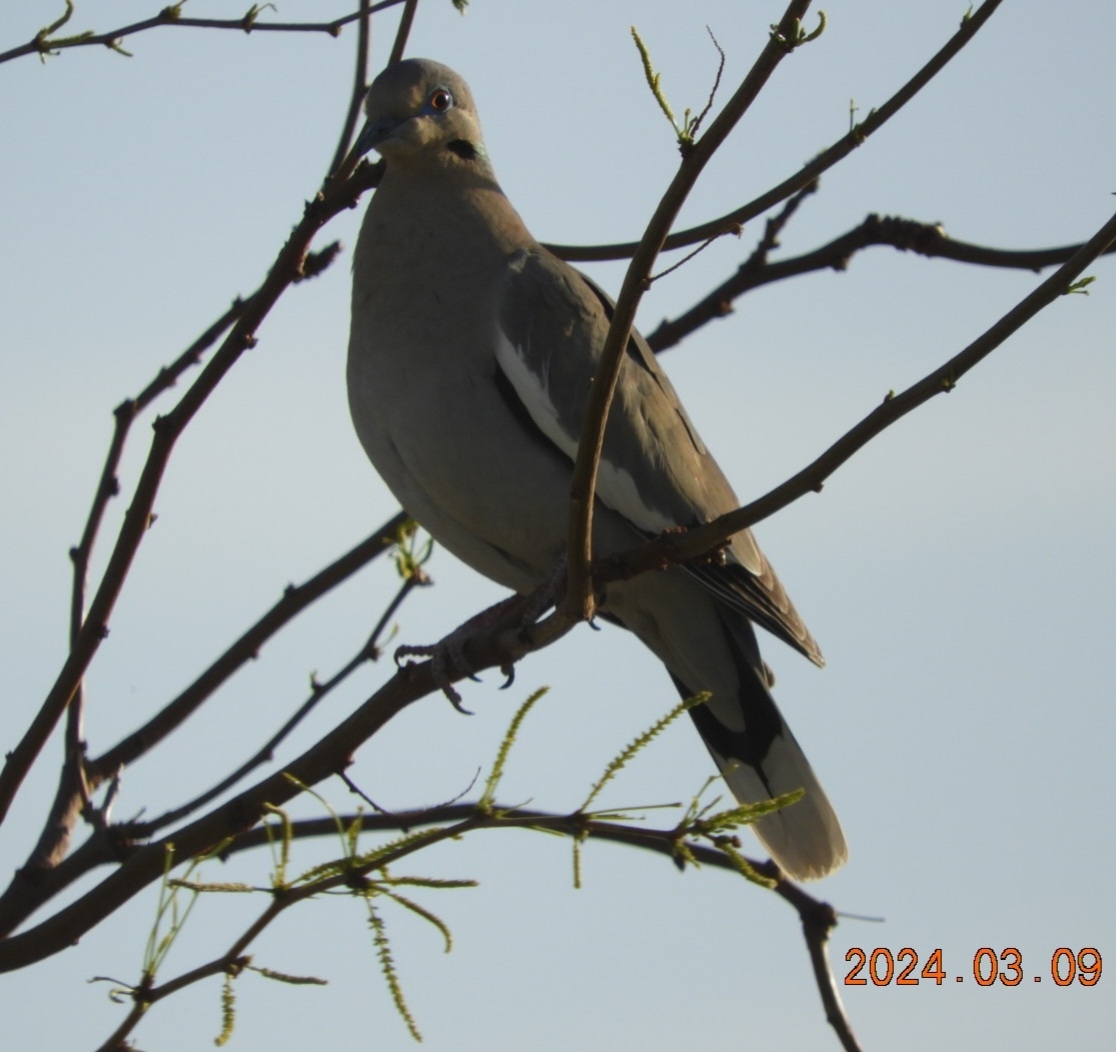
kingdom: Animalia
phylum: Chordata
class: Aves
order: Columbiformes
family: Columbidae
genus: Zenaida
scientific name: Zenaida asiatica
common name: White-winged dove
